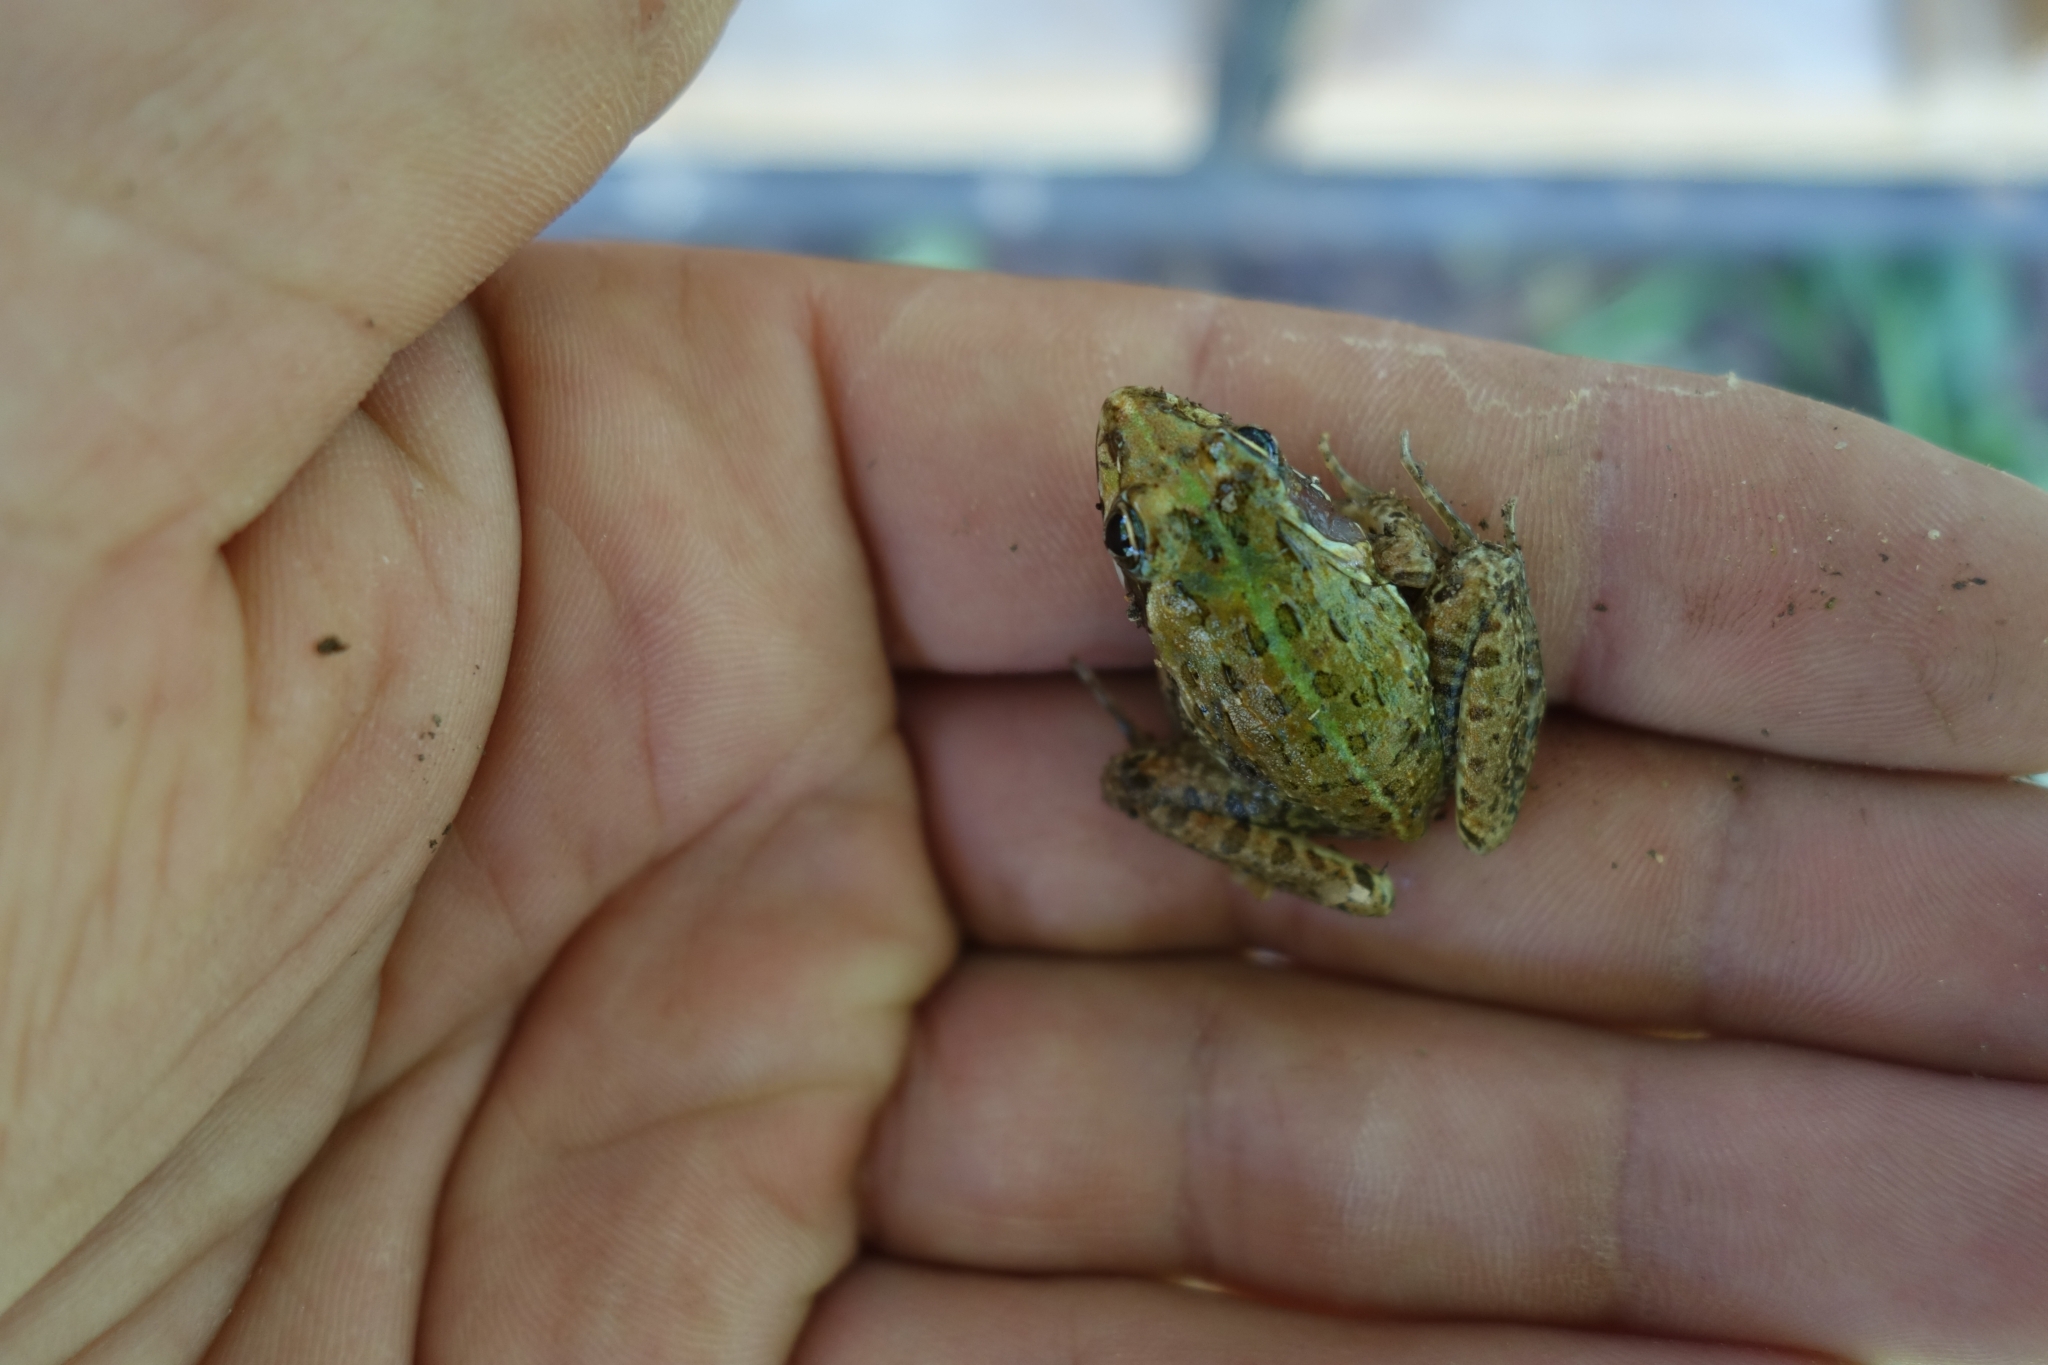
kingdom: Animalia
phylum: Chordata
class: Amphibia
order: Anura
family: Pyxicephalidae
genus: Amietia
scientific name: Amietia delalandii
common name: Delalande's river frog
